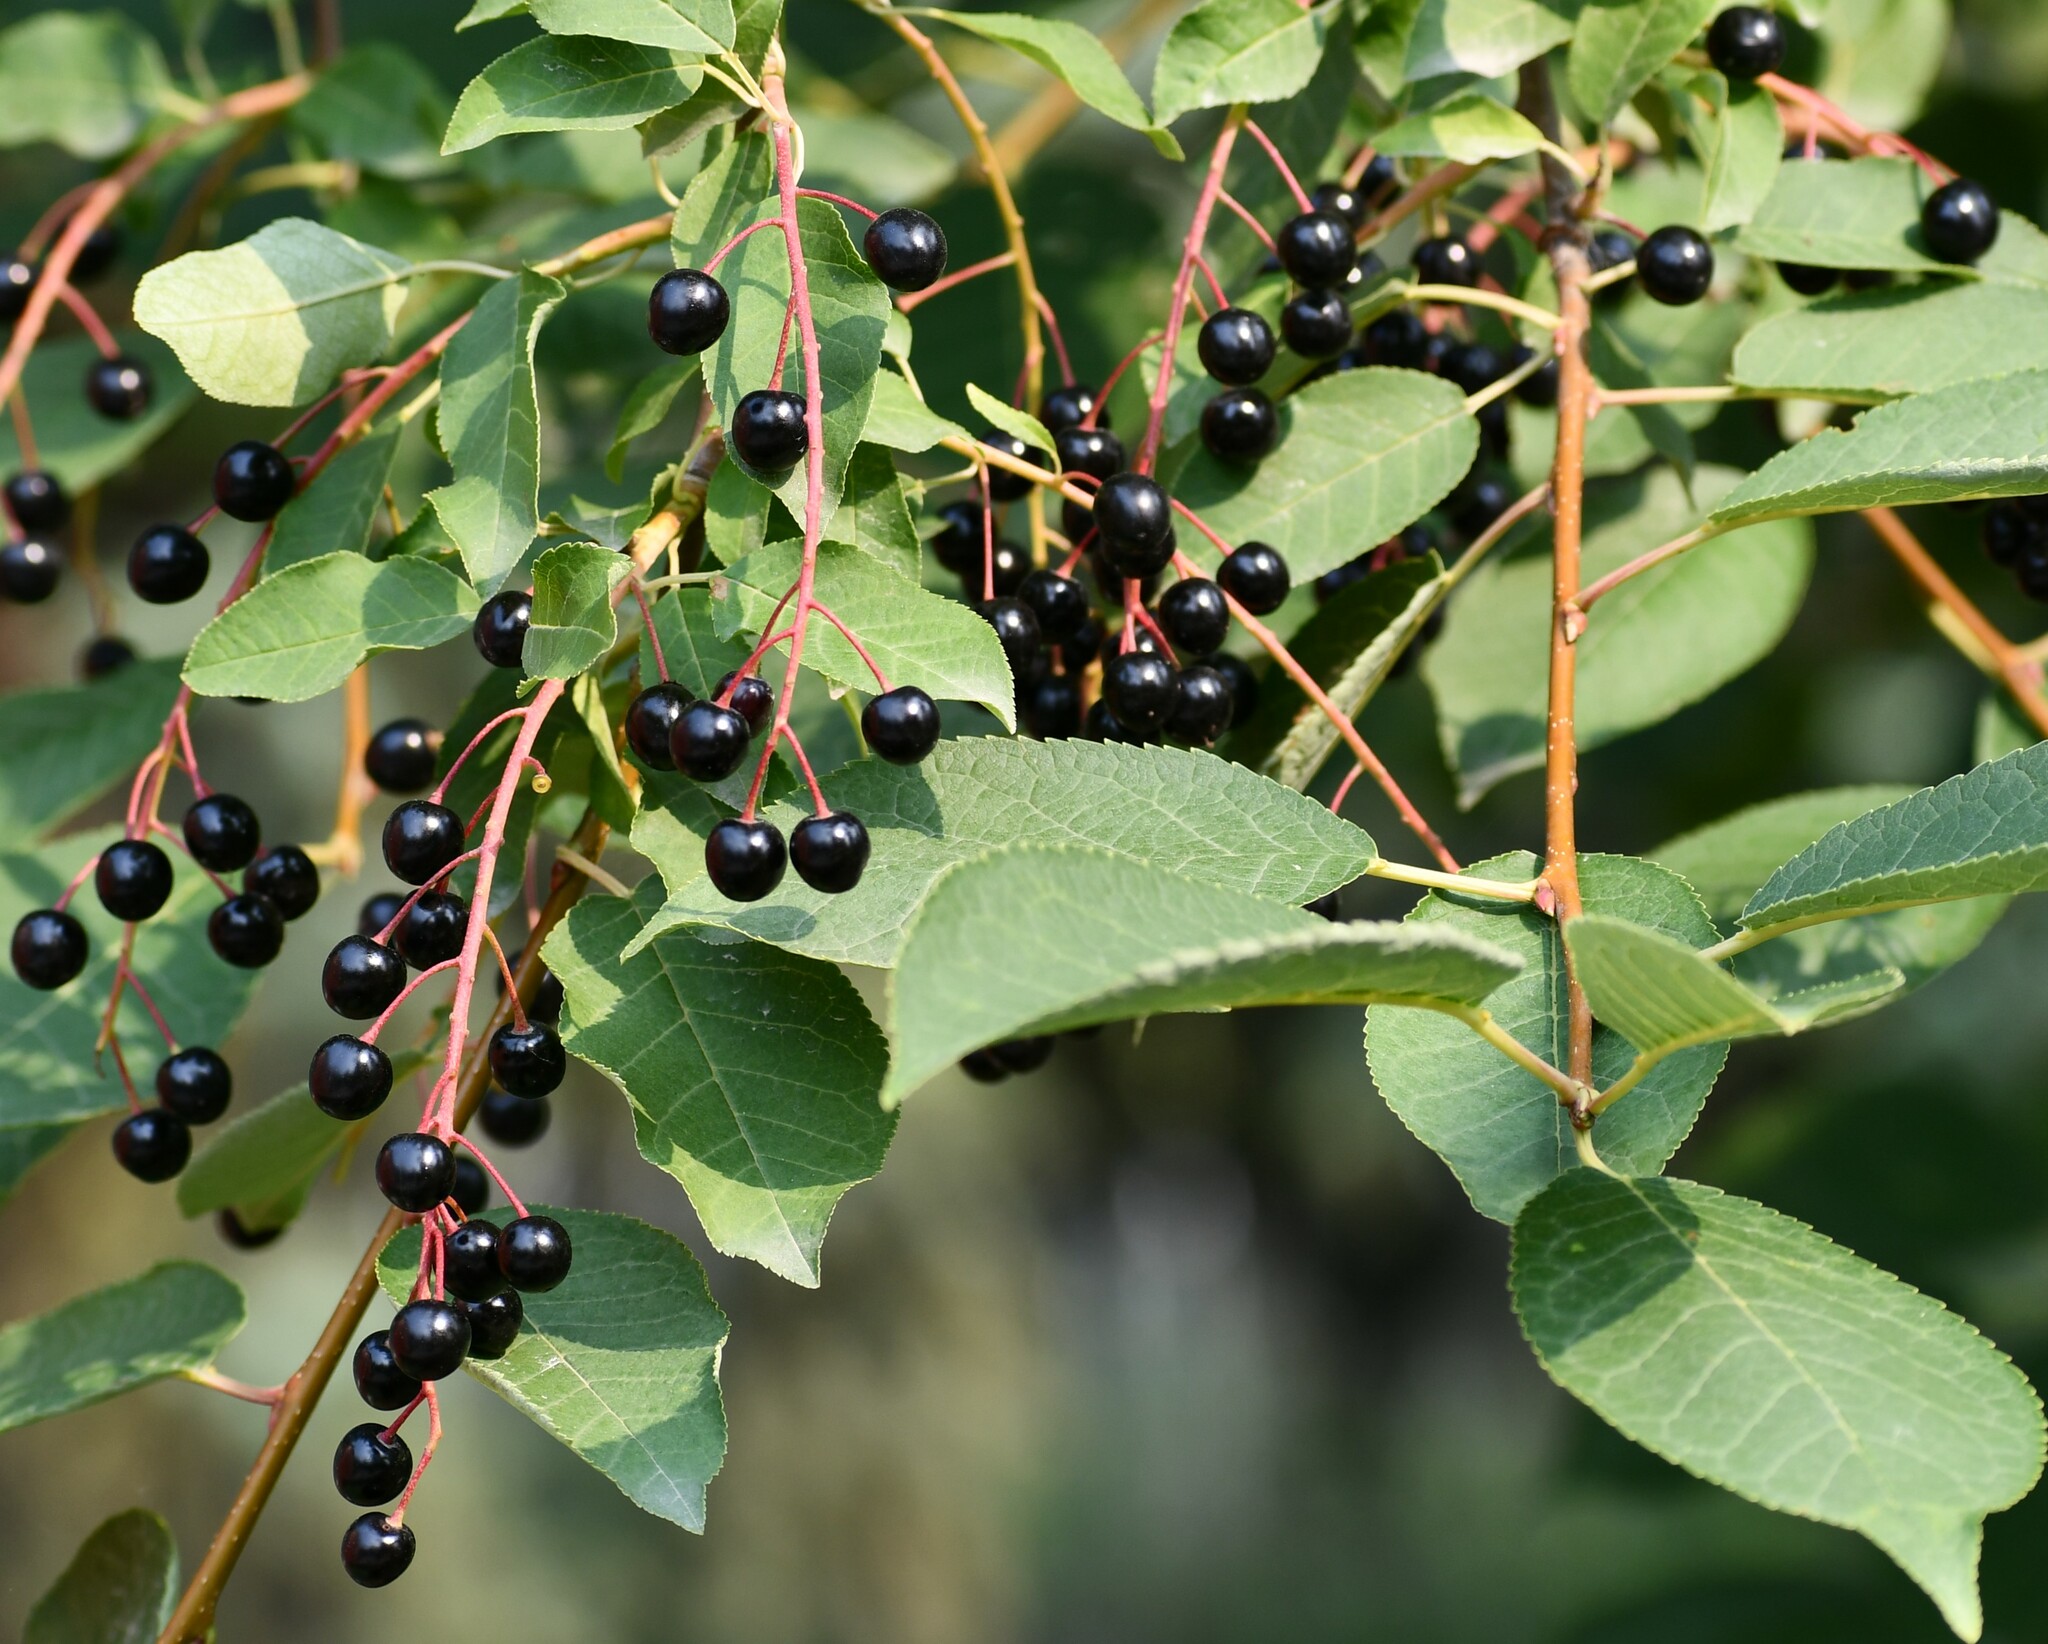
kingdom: Plantae
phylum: Tracheophyta
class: Magnoliopsida
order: Rosales
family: Rosaceae
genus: Prunus
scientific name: Prunus padus
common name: Bird cherry
